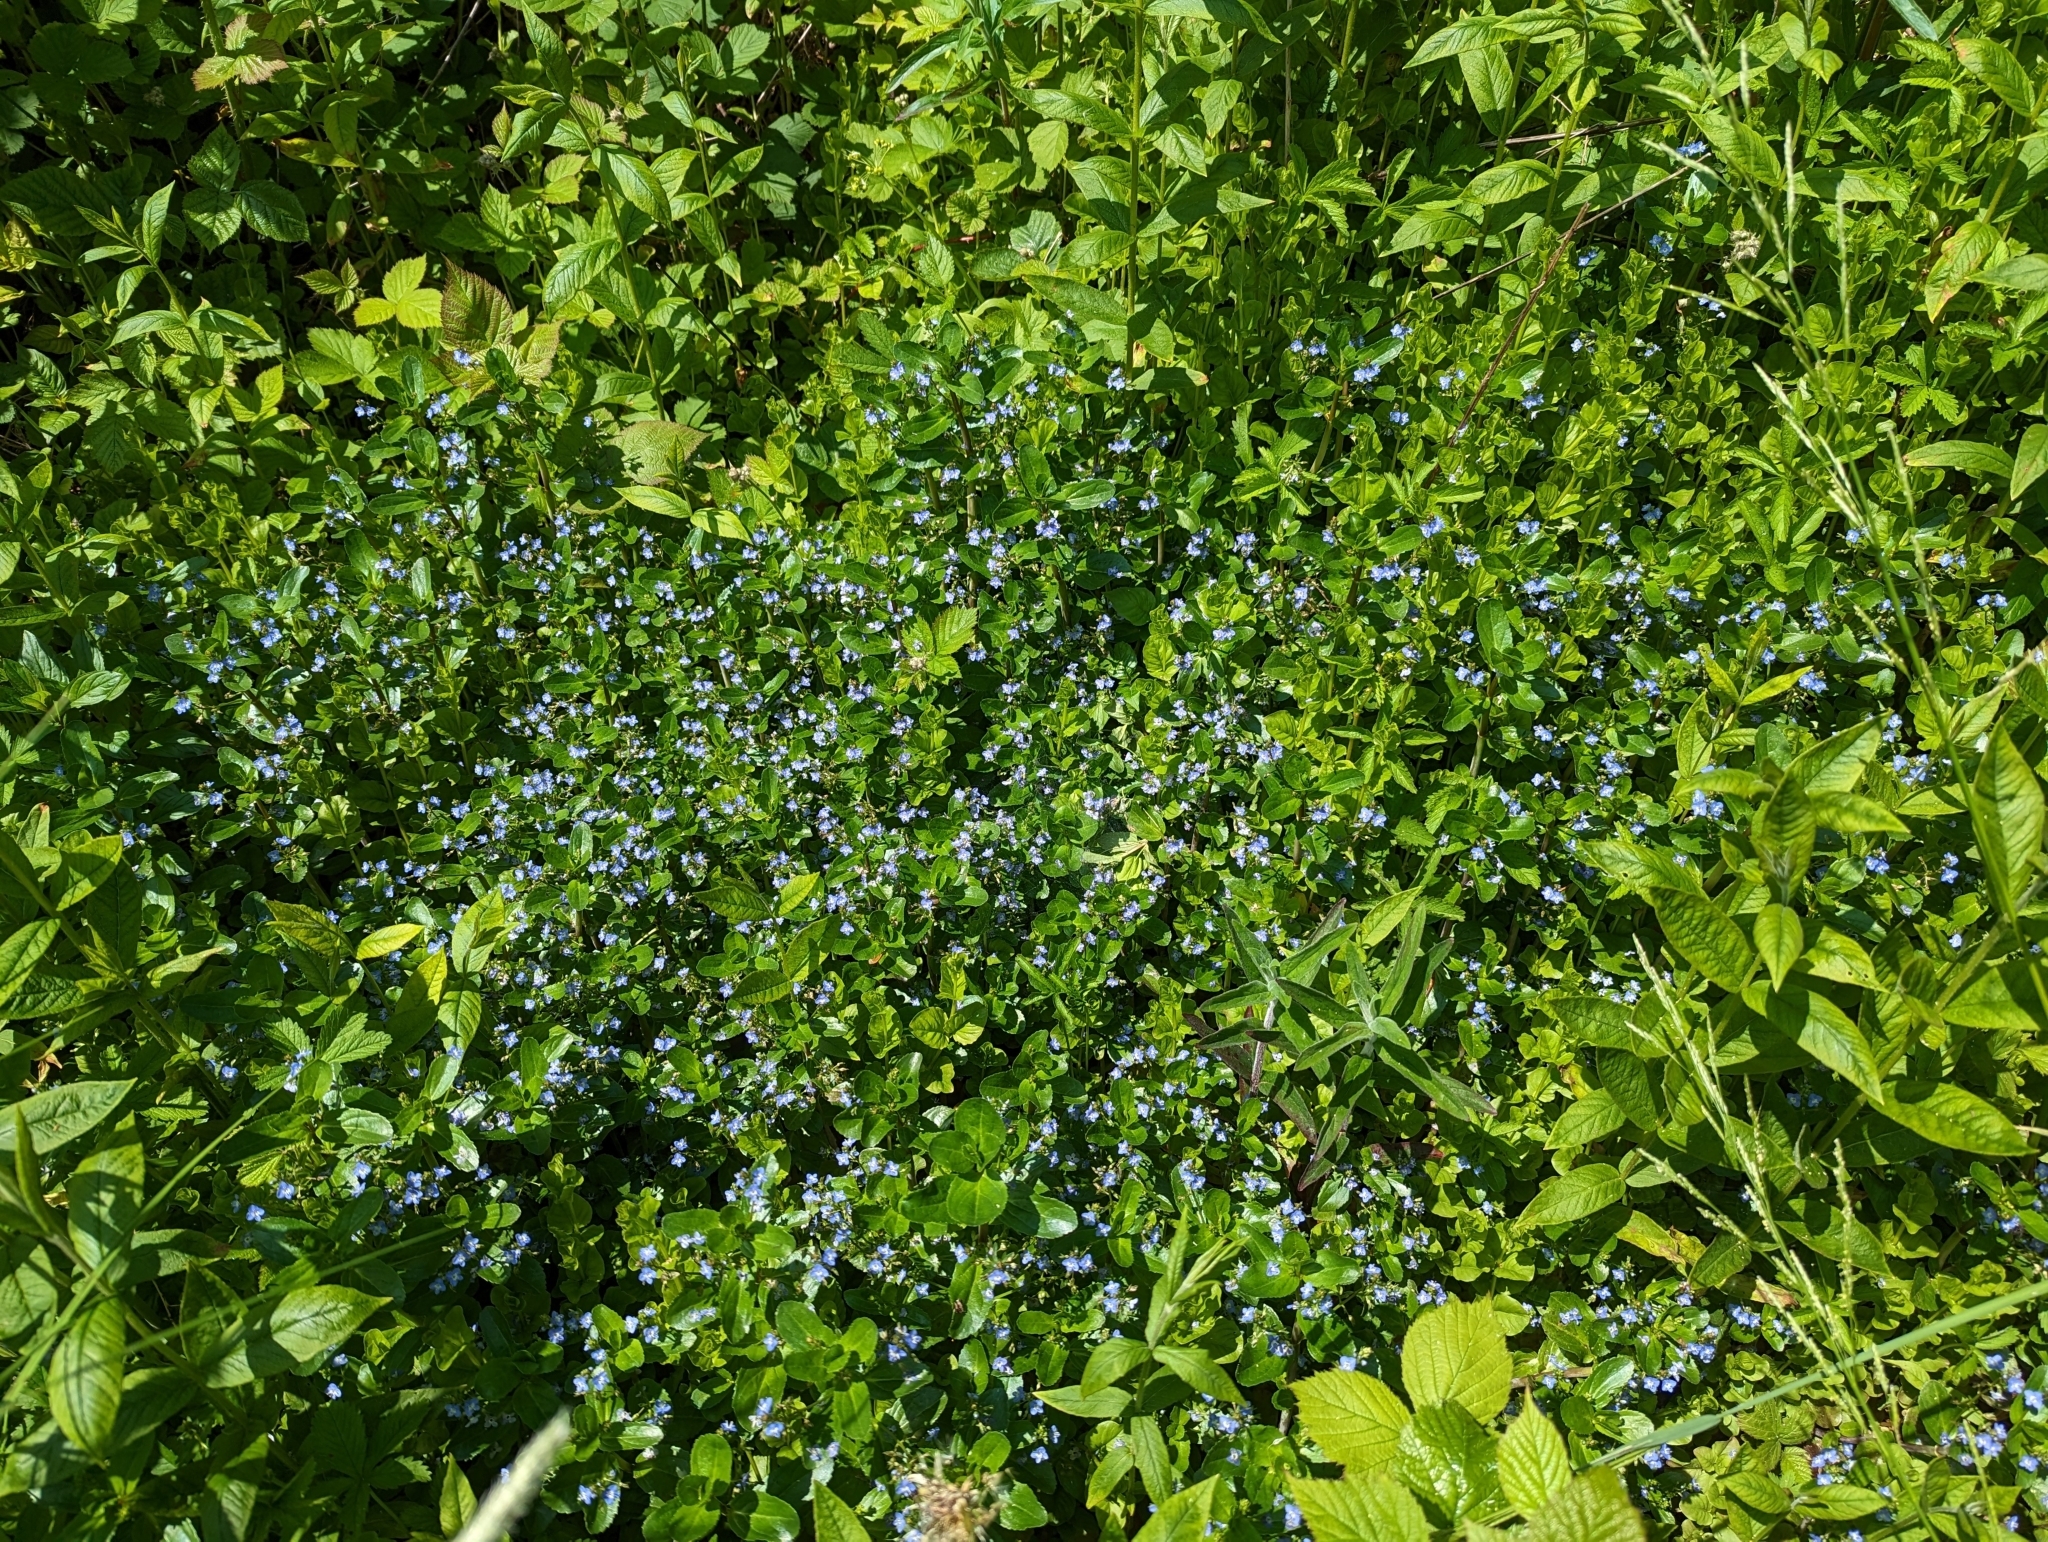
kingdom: Plantae
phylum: Tracheophyta
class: Magnoliopsida
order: Lamiales
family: Plantaginaceae
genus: Veronica
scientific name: Veronica beccabunga
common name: Brooklime
